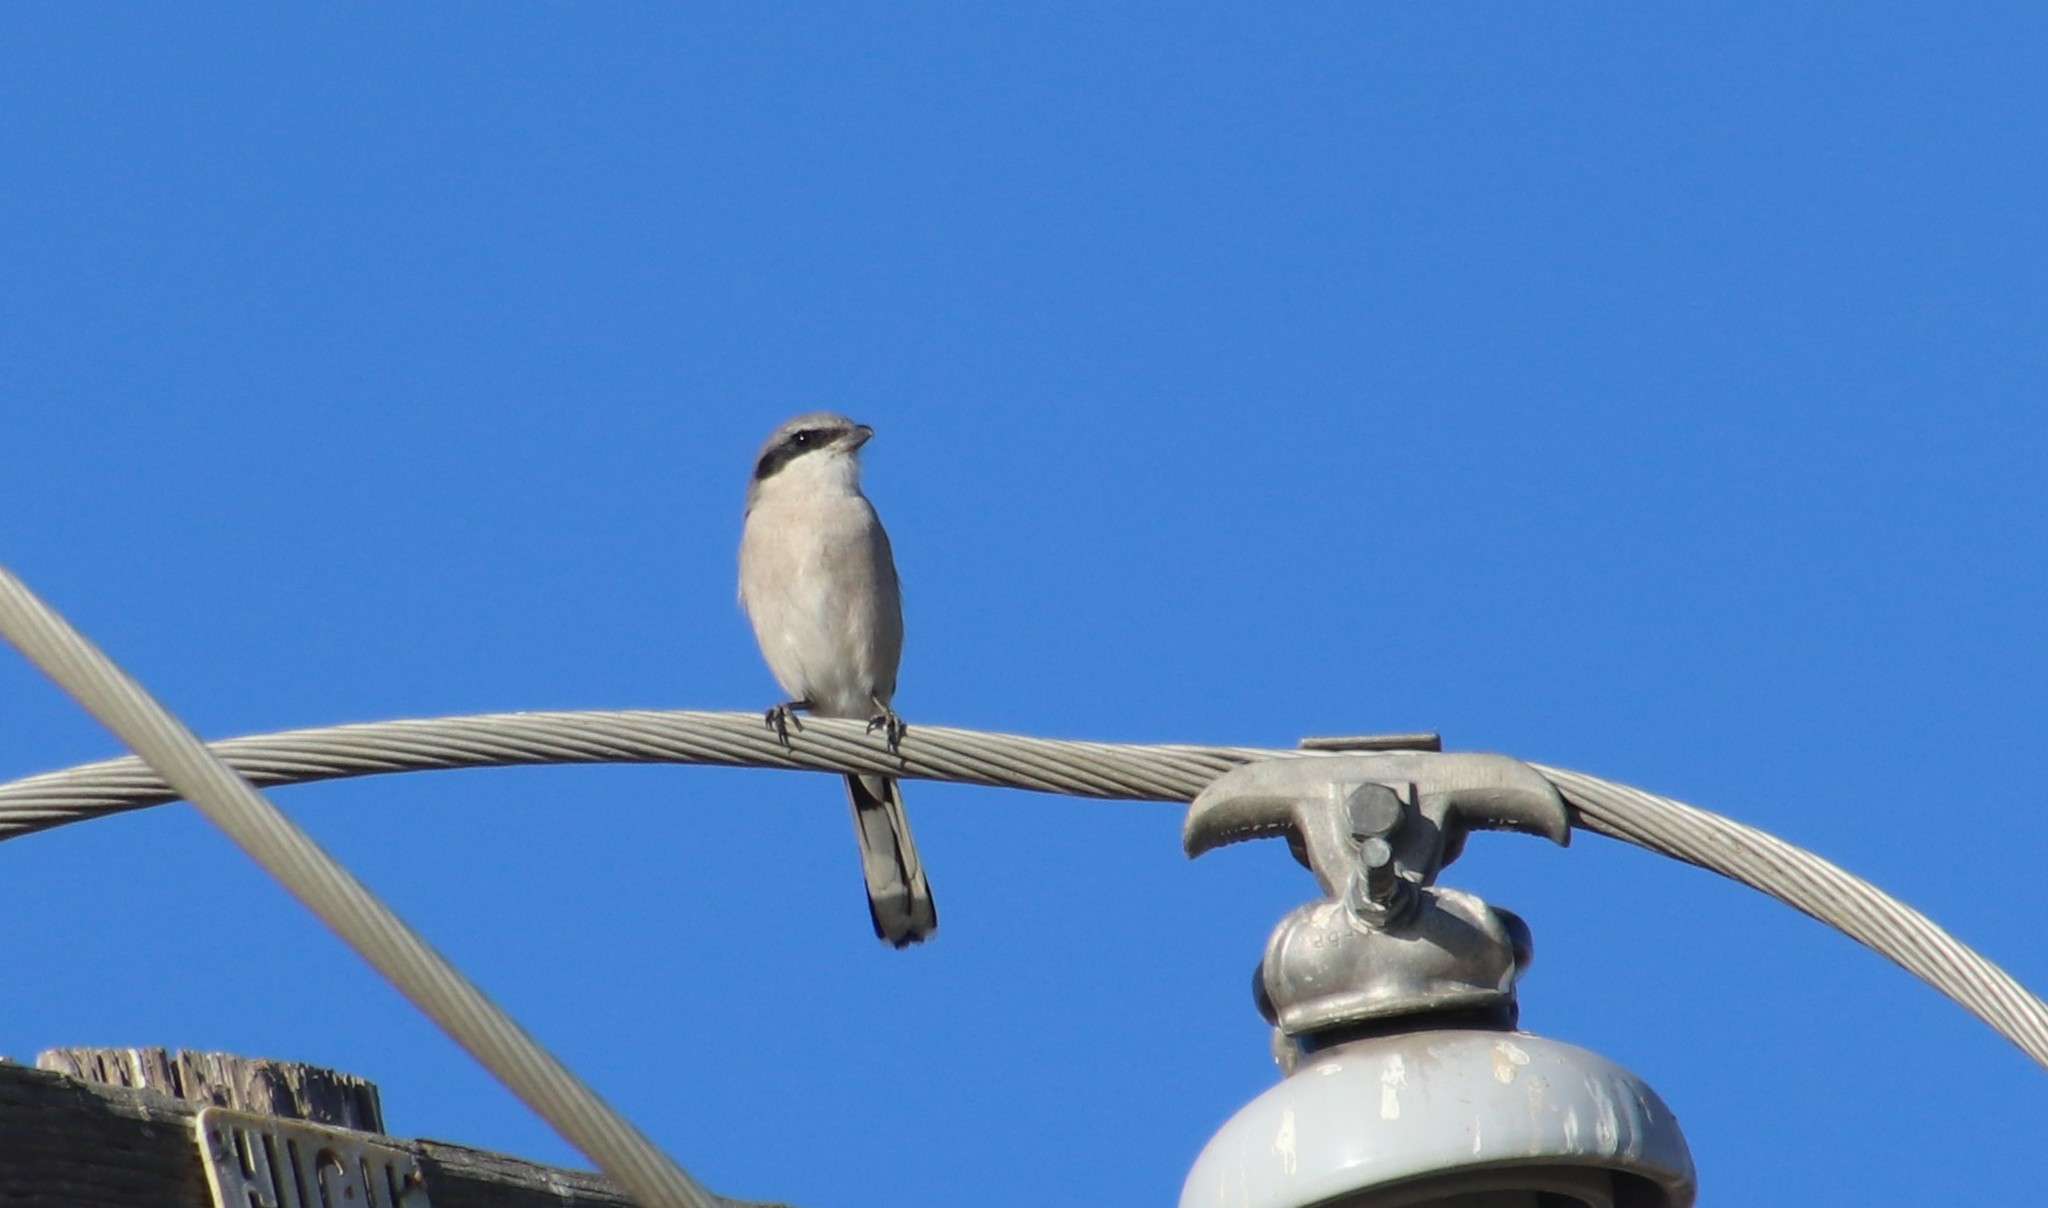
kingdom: Animalia
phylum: Chordata
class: Aves
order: Passeriformes
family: Laniidae
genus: Lanius
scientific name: Lanius ludovicianus
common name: Loggerhead shrike
